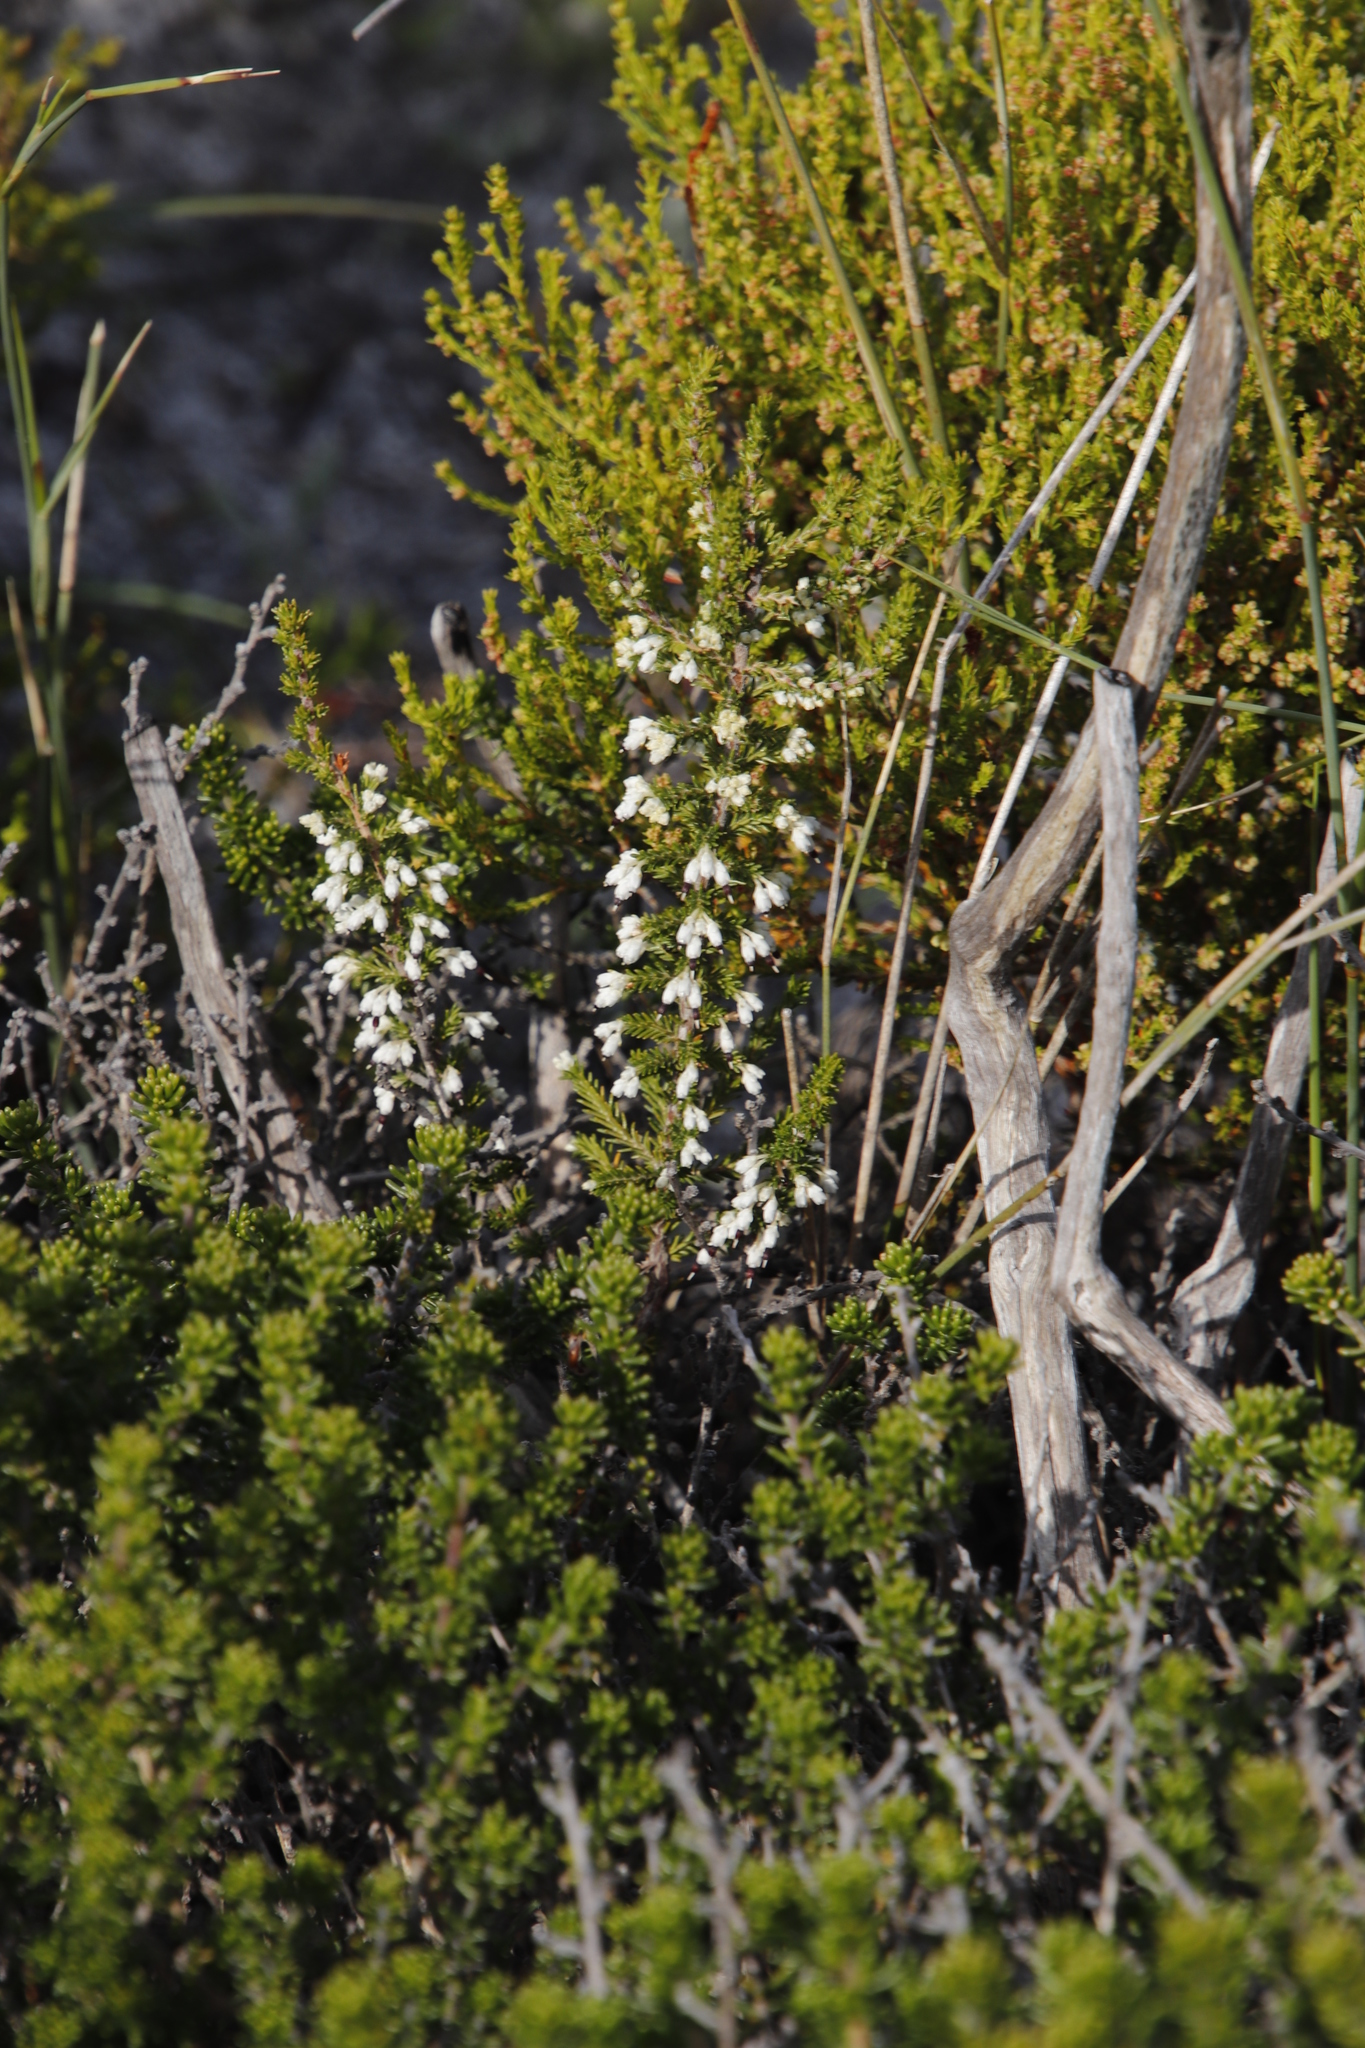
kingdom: Plantae
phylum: Tracheophyta
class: Magnoliopsida
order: Ericales
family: Ericaceae
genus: Erica
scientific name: Erica imbricata
